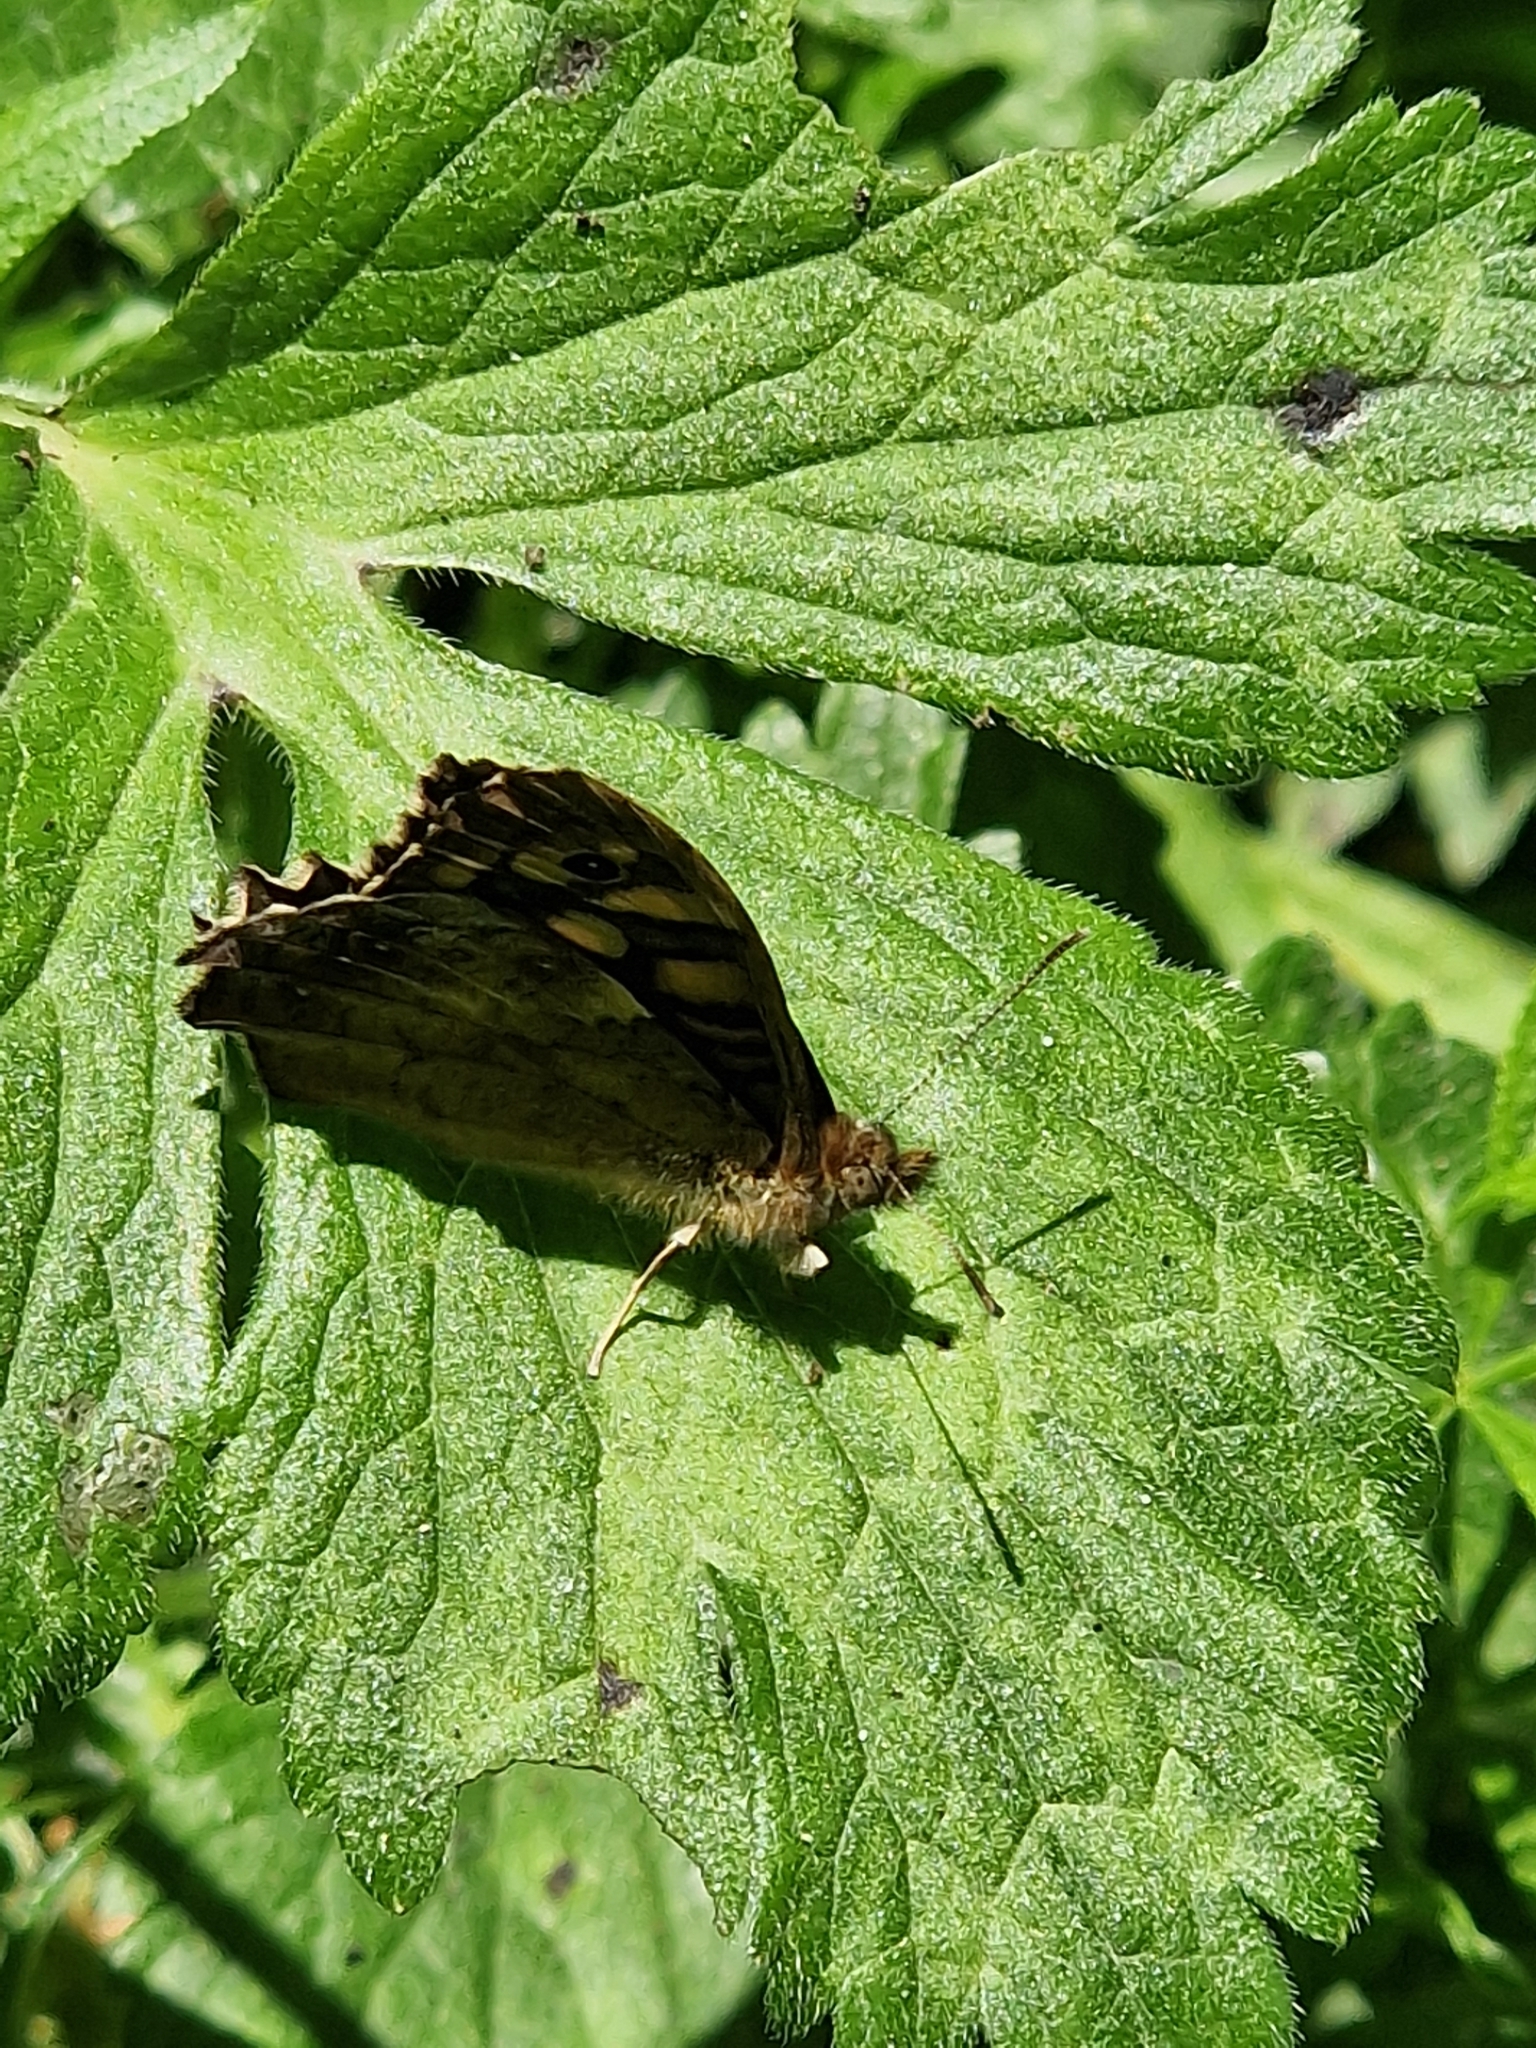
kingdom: Animalia
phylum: Arthropoda
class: Insecta
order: Lepidoptera
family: Nymphalidae
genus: Pararge
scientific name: Pararge aegeria
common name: Speckled wood
